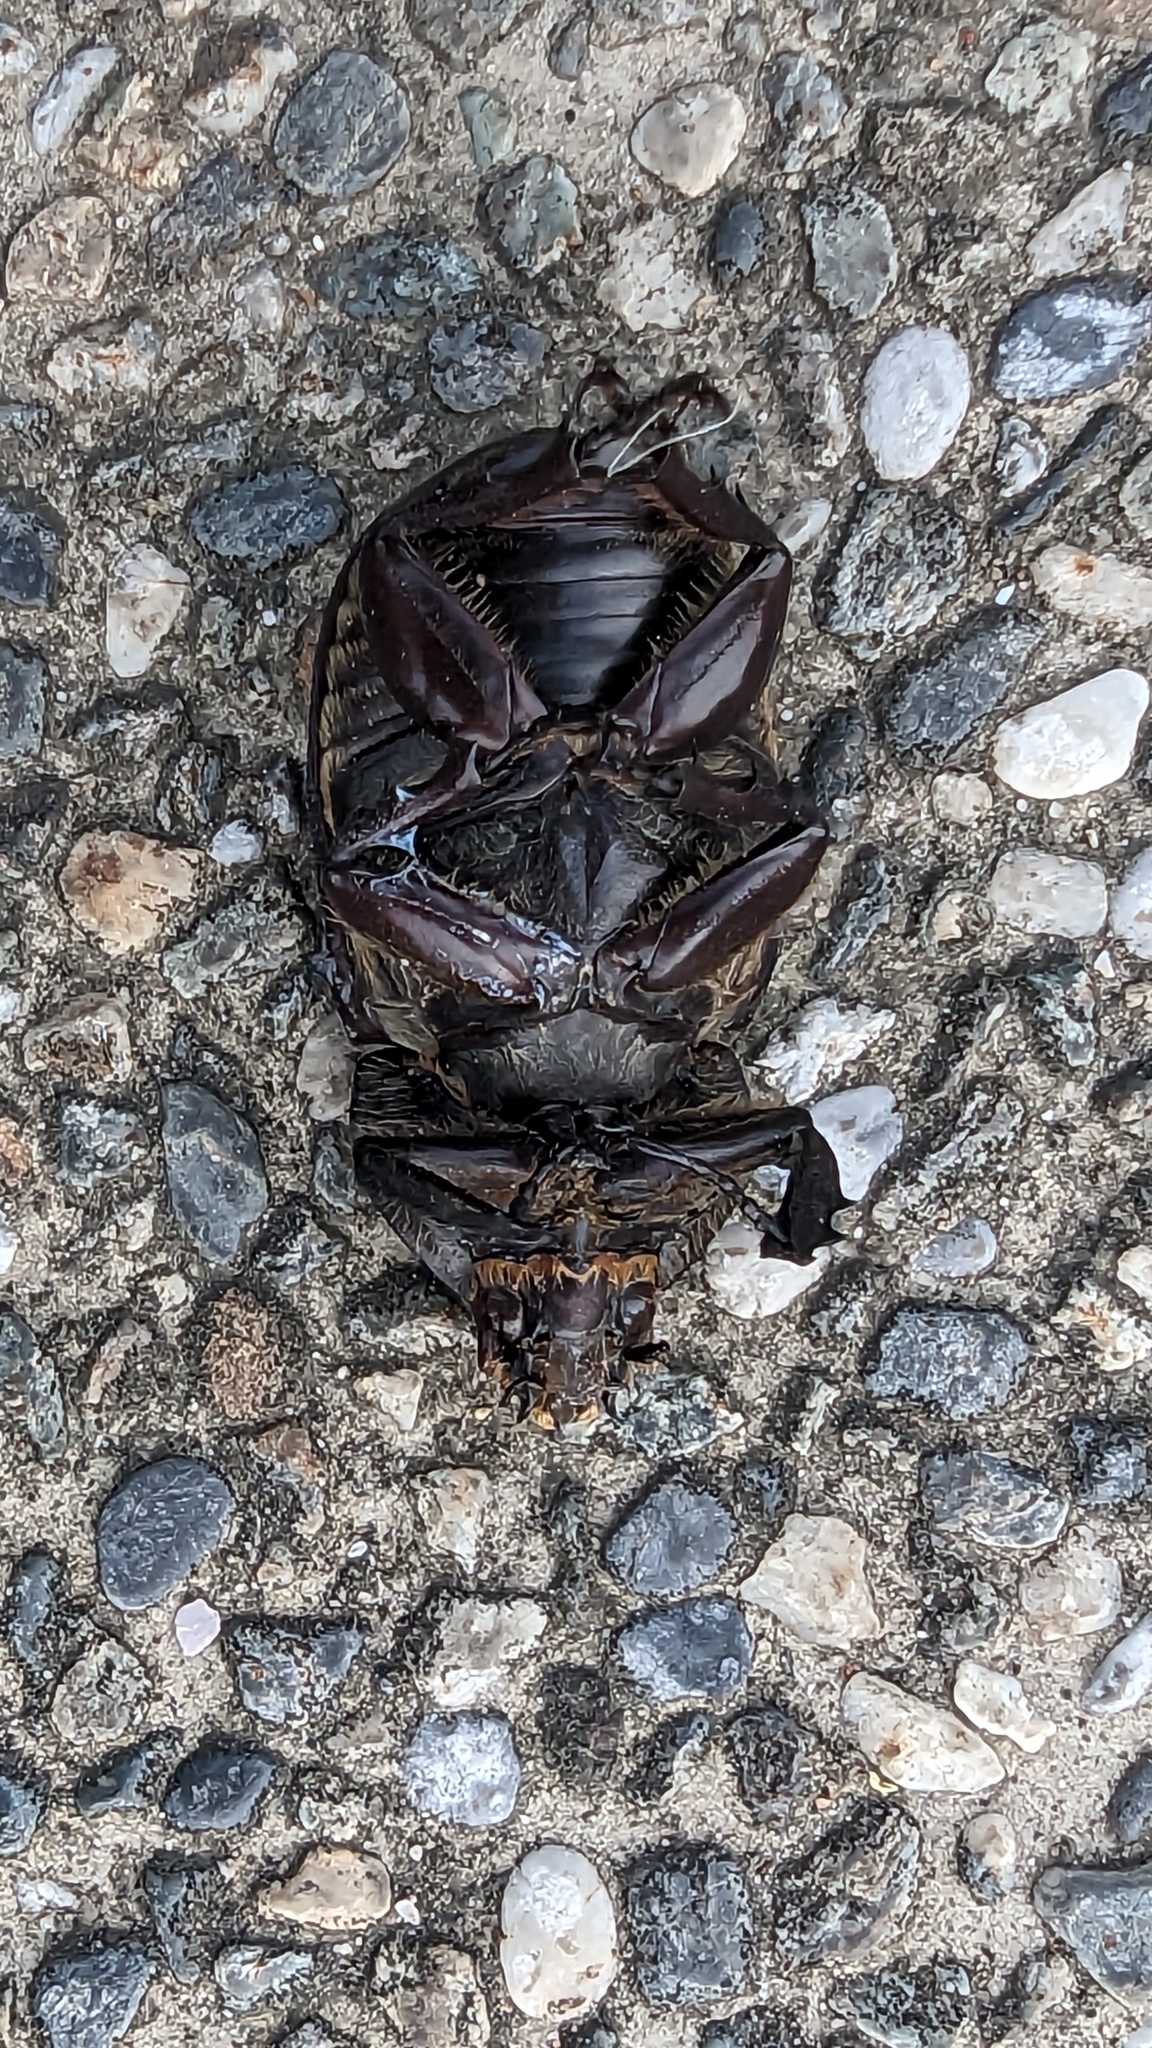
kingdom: Animalia
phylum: Arthropoda
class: Insecta
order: Coleoptera
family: Scarabaeidae
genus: Trypoxylus
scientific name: Trypoxylus dichotomus
